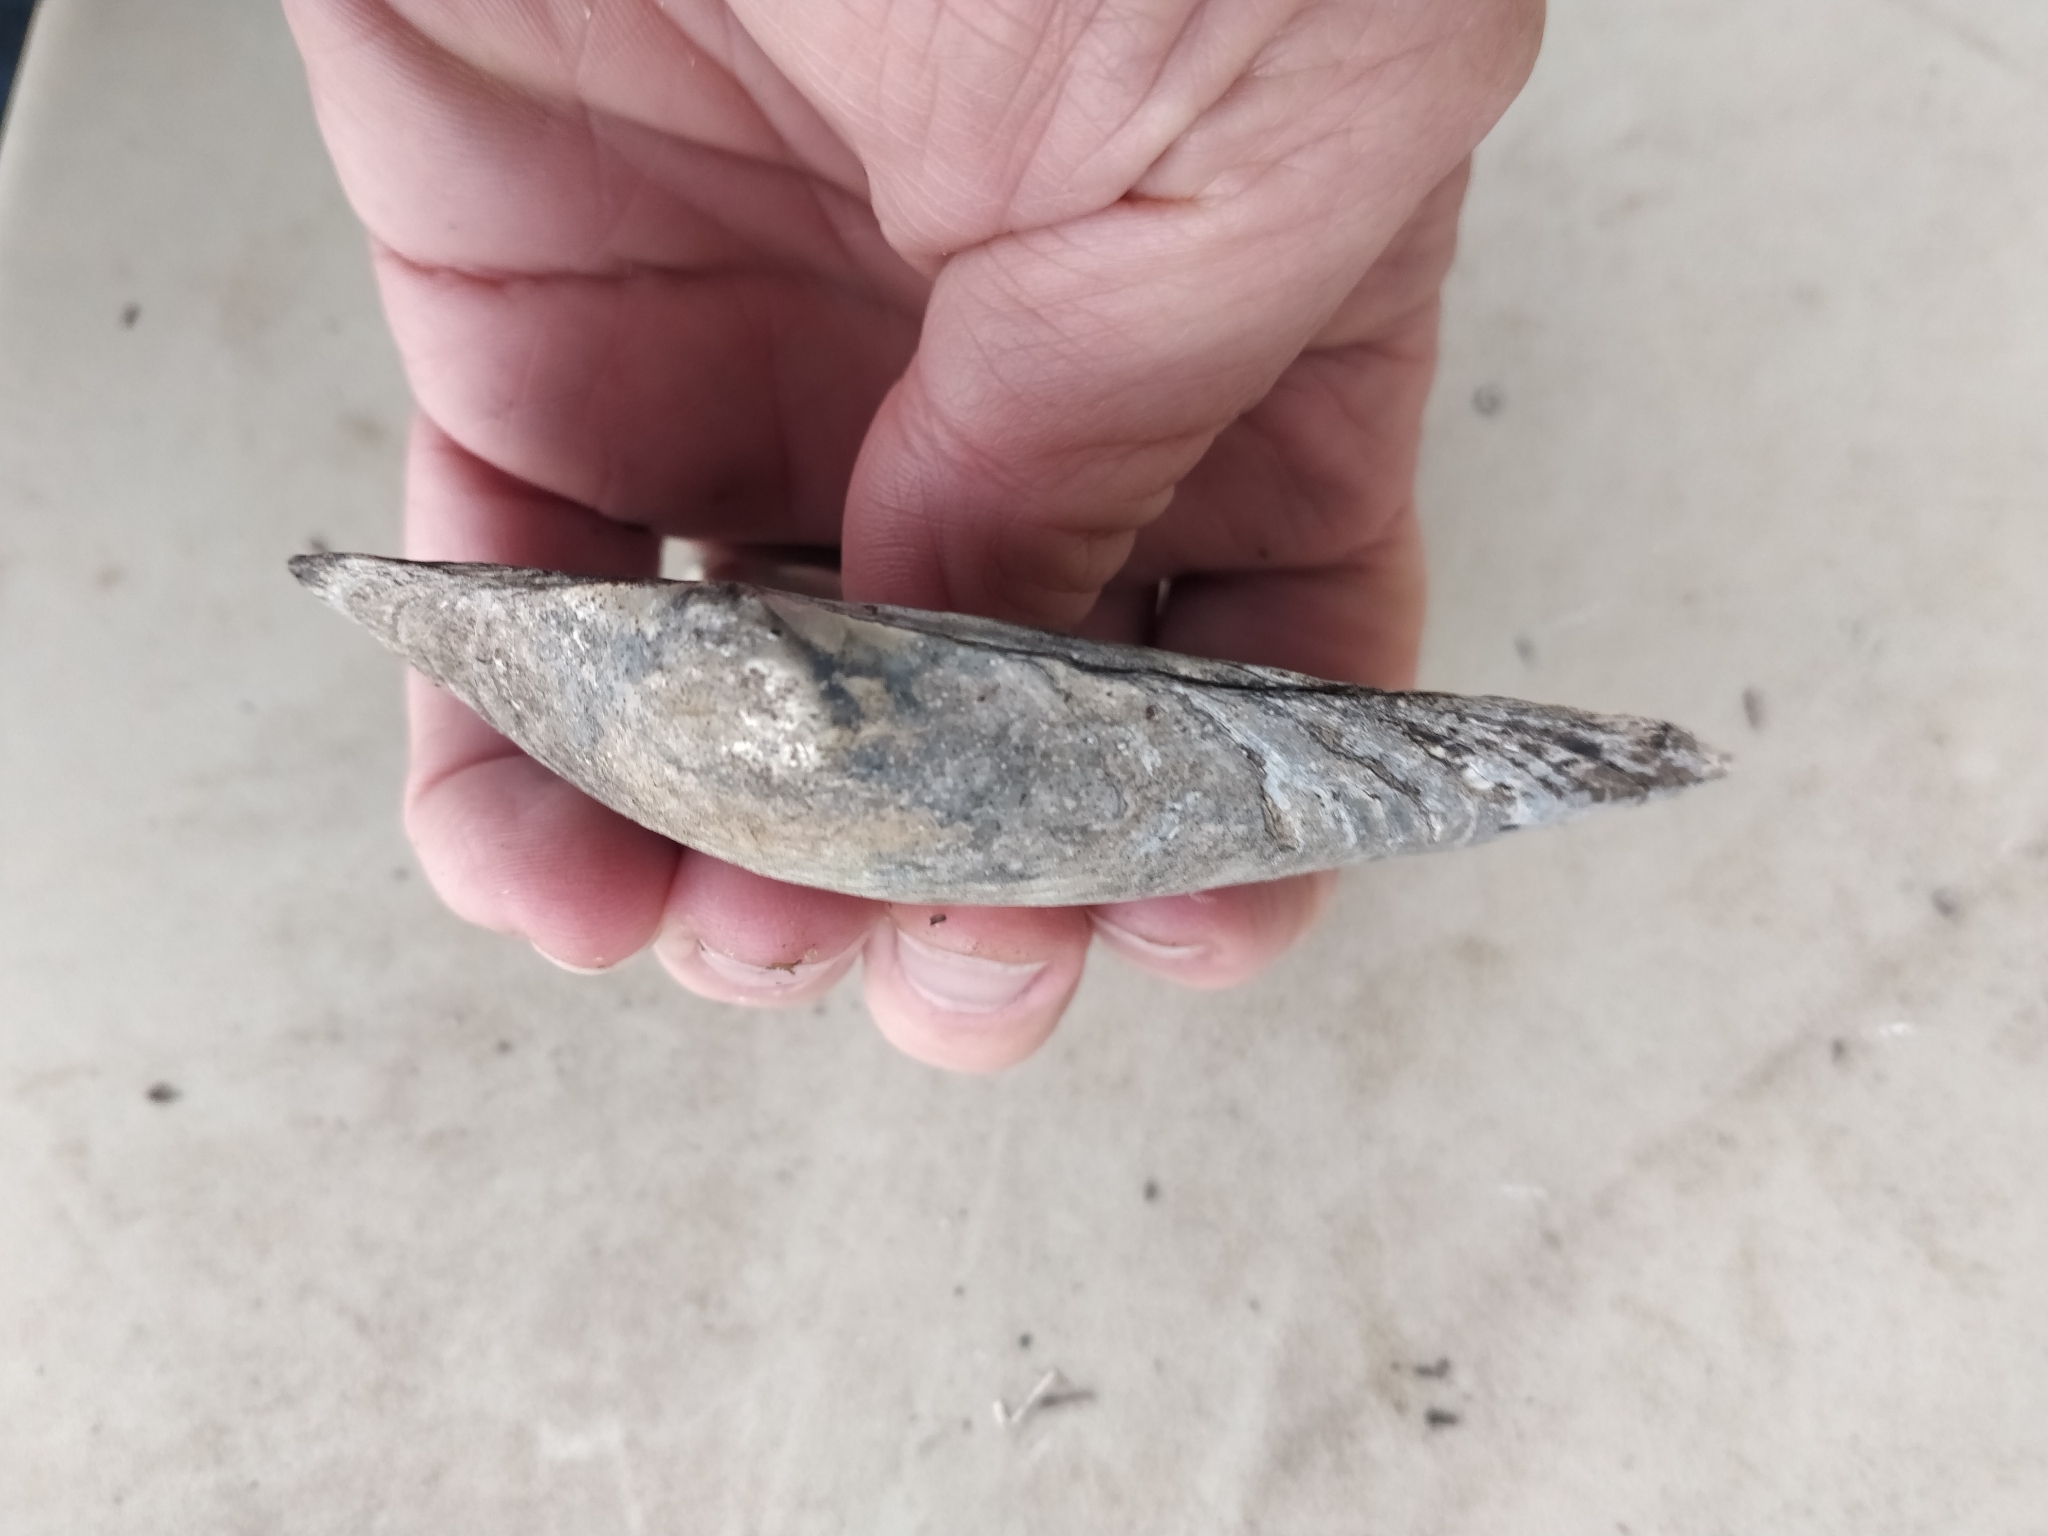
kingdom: Animalia
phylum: Mollusca
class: Bivalvia
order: Unionida
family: Unionidae
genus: Pyganodon
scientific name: Pyganodon grandis
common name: Giant floater
